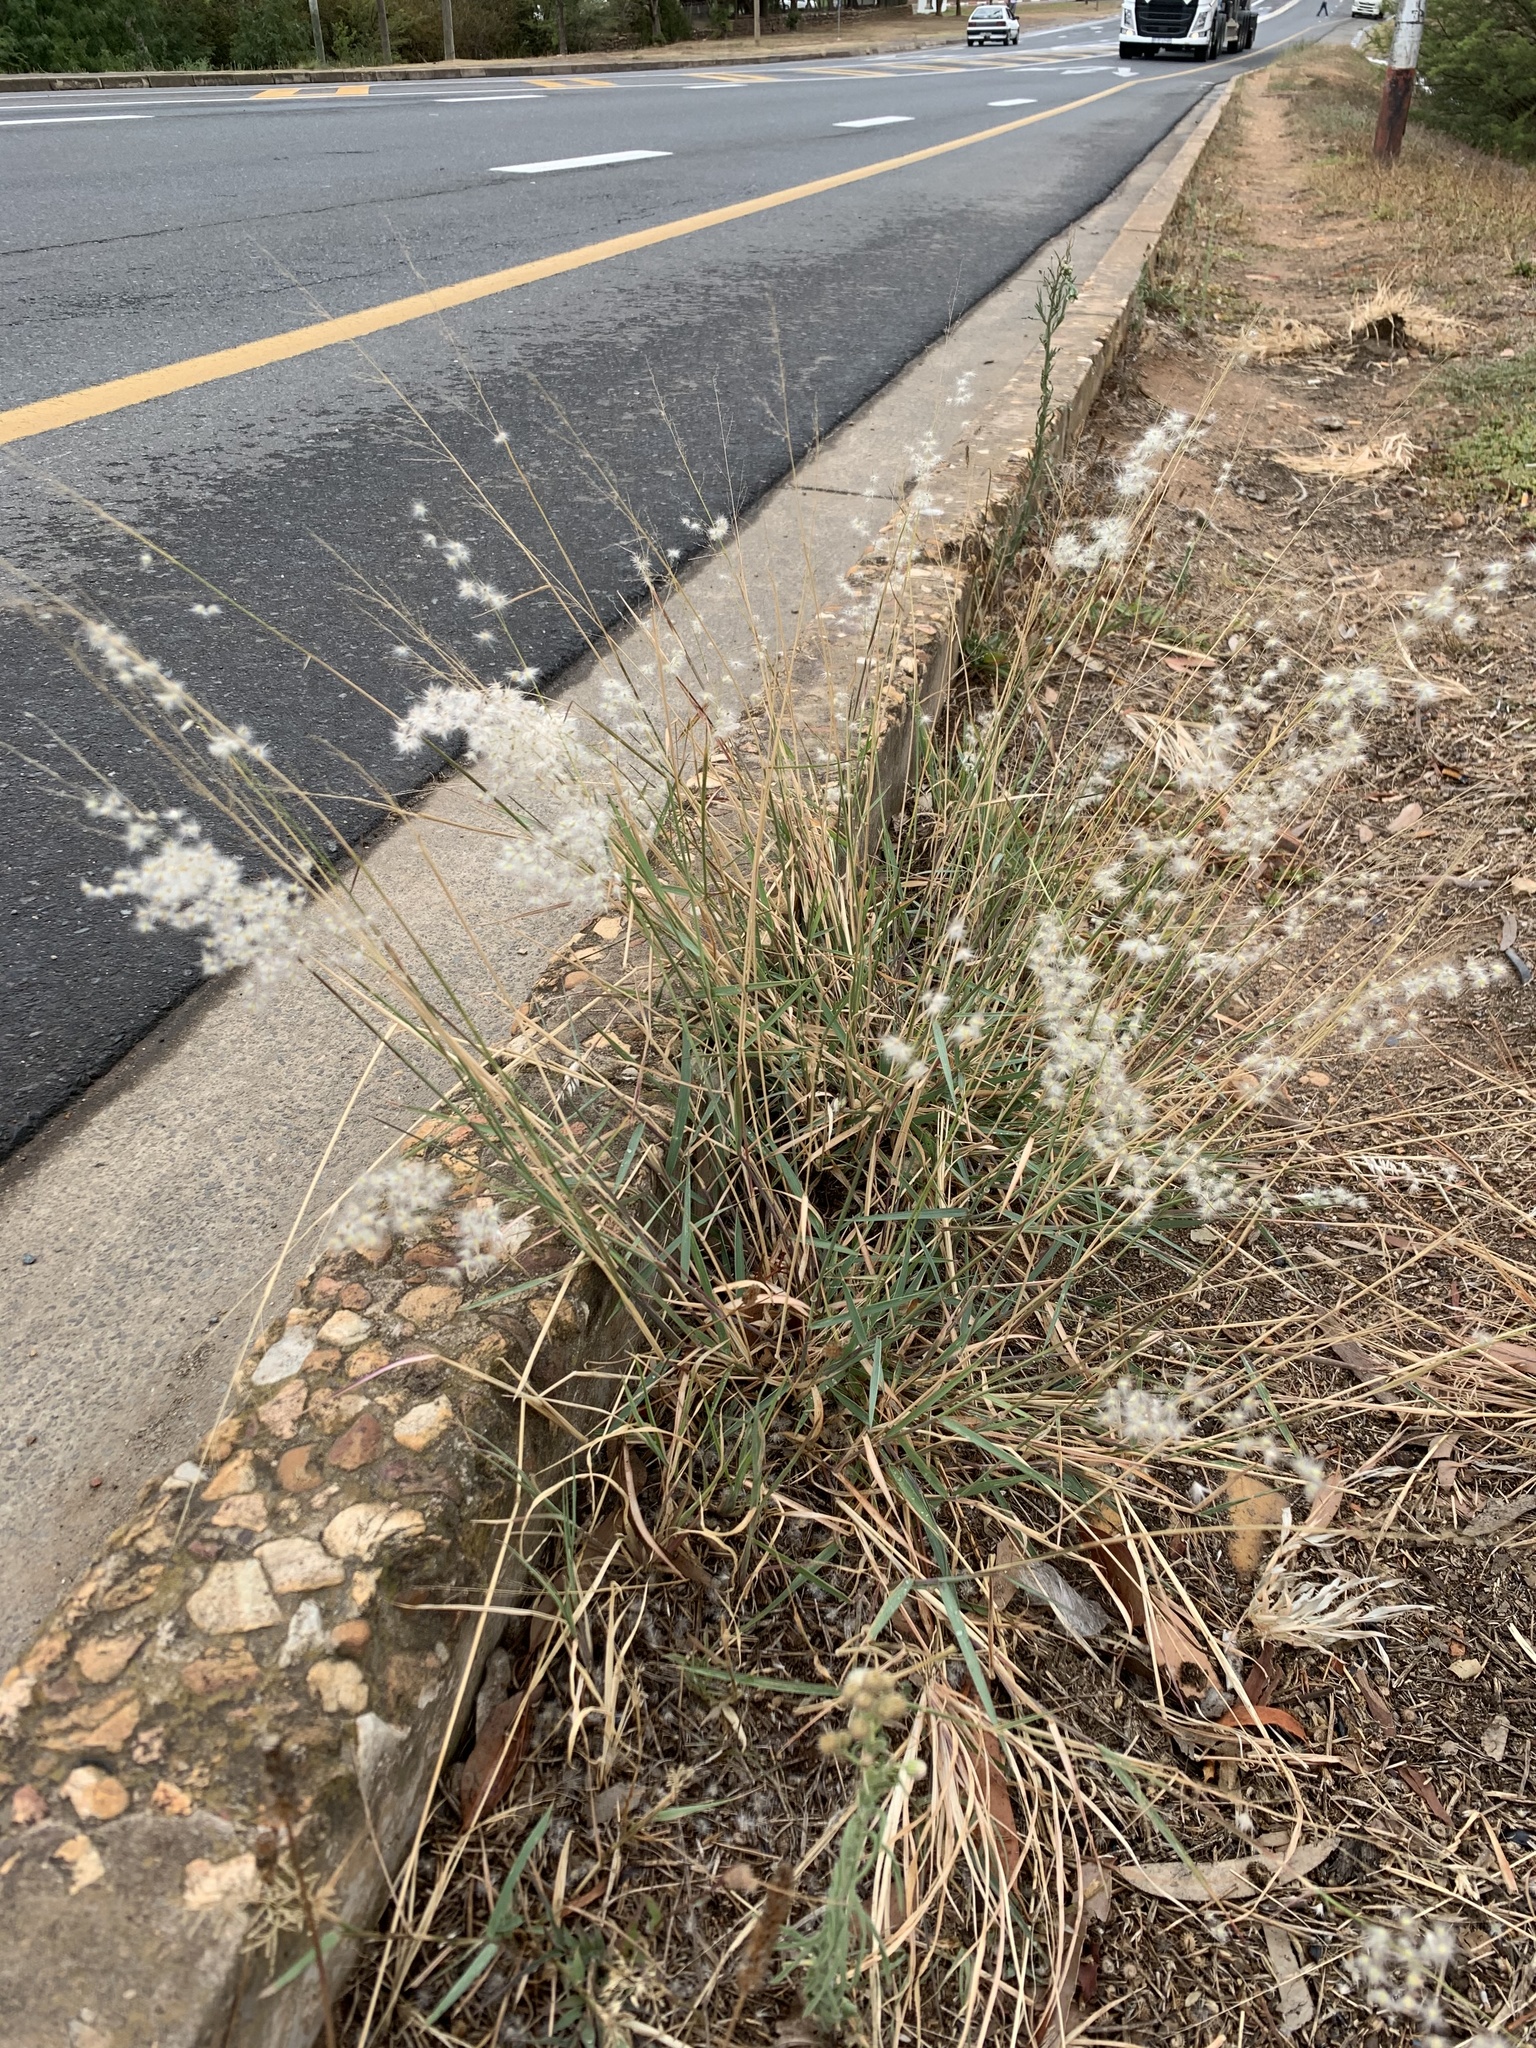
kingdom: Plantae
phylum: Tracheophyta
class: Liliopsida
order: Poales
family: Poaceae
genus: Melinis
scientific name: Melinis repens
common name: Rose natal grass
